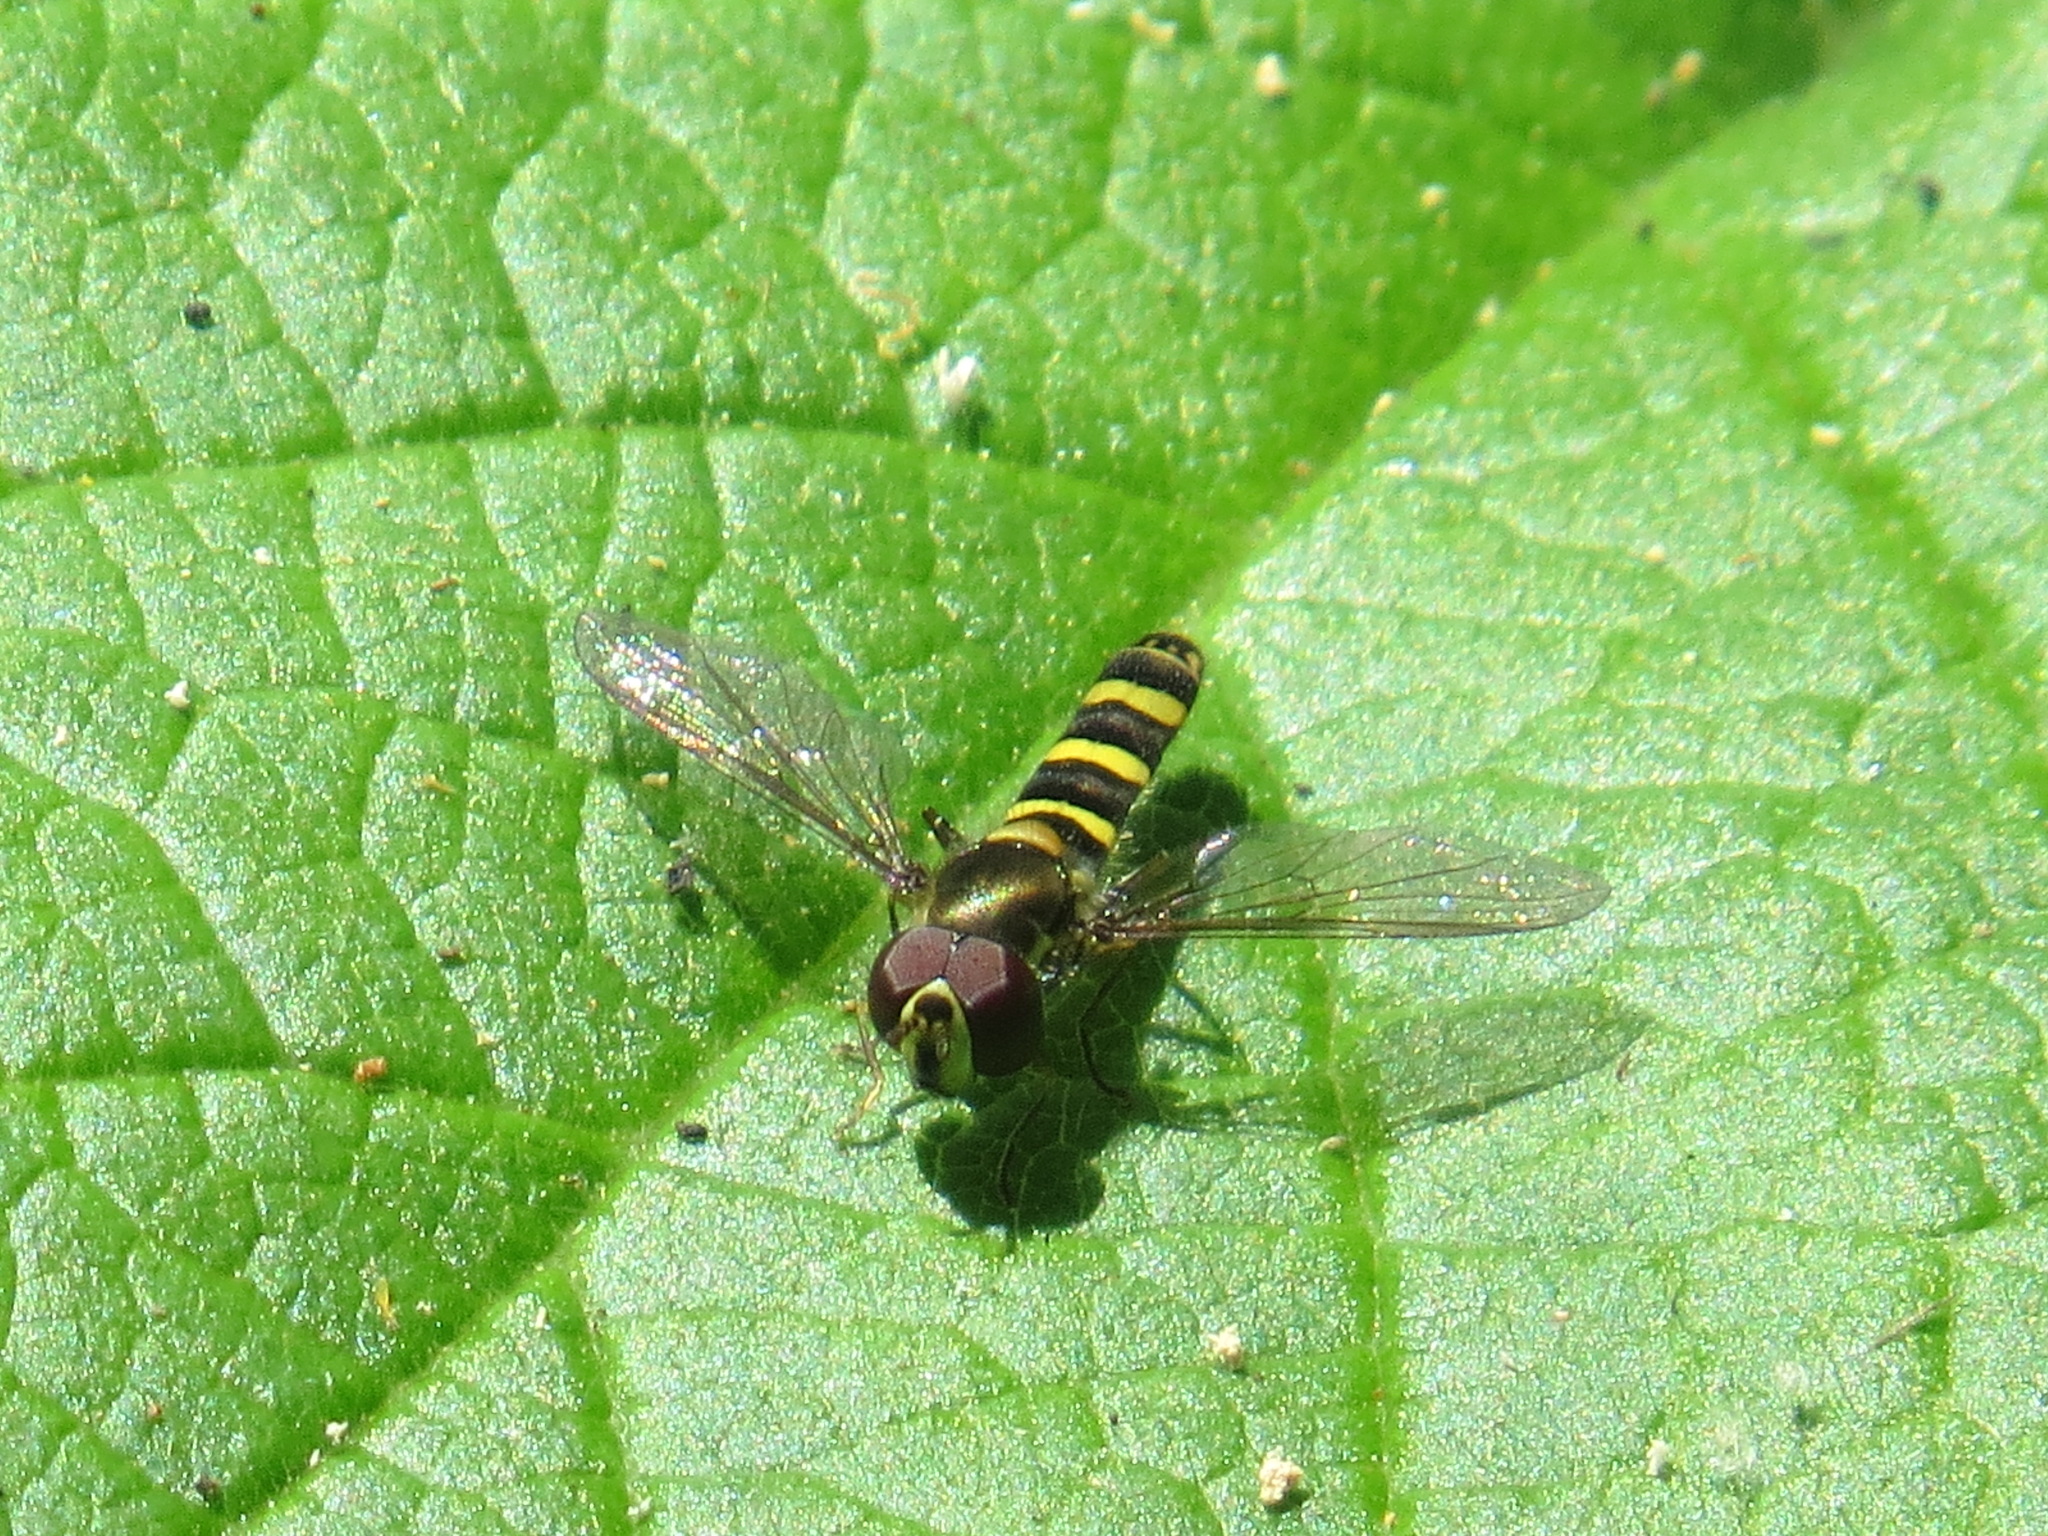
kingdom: Animalia
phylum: Arthropoda
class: Insecta
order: Diptera
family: Syrphidae
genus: Fazia
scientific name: Fazia micrura
